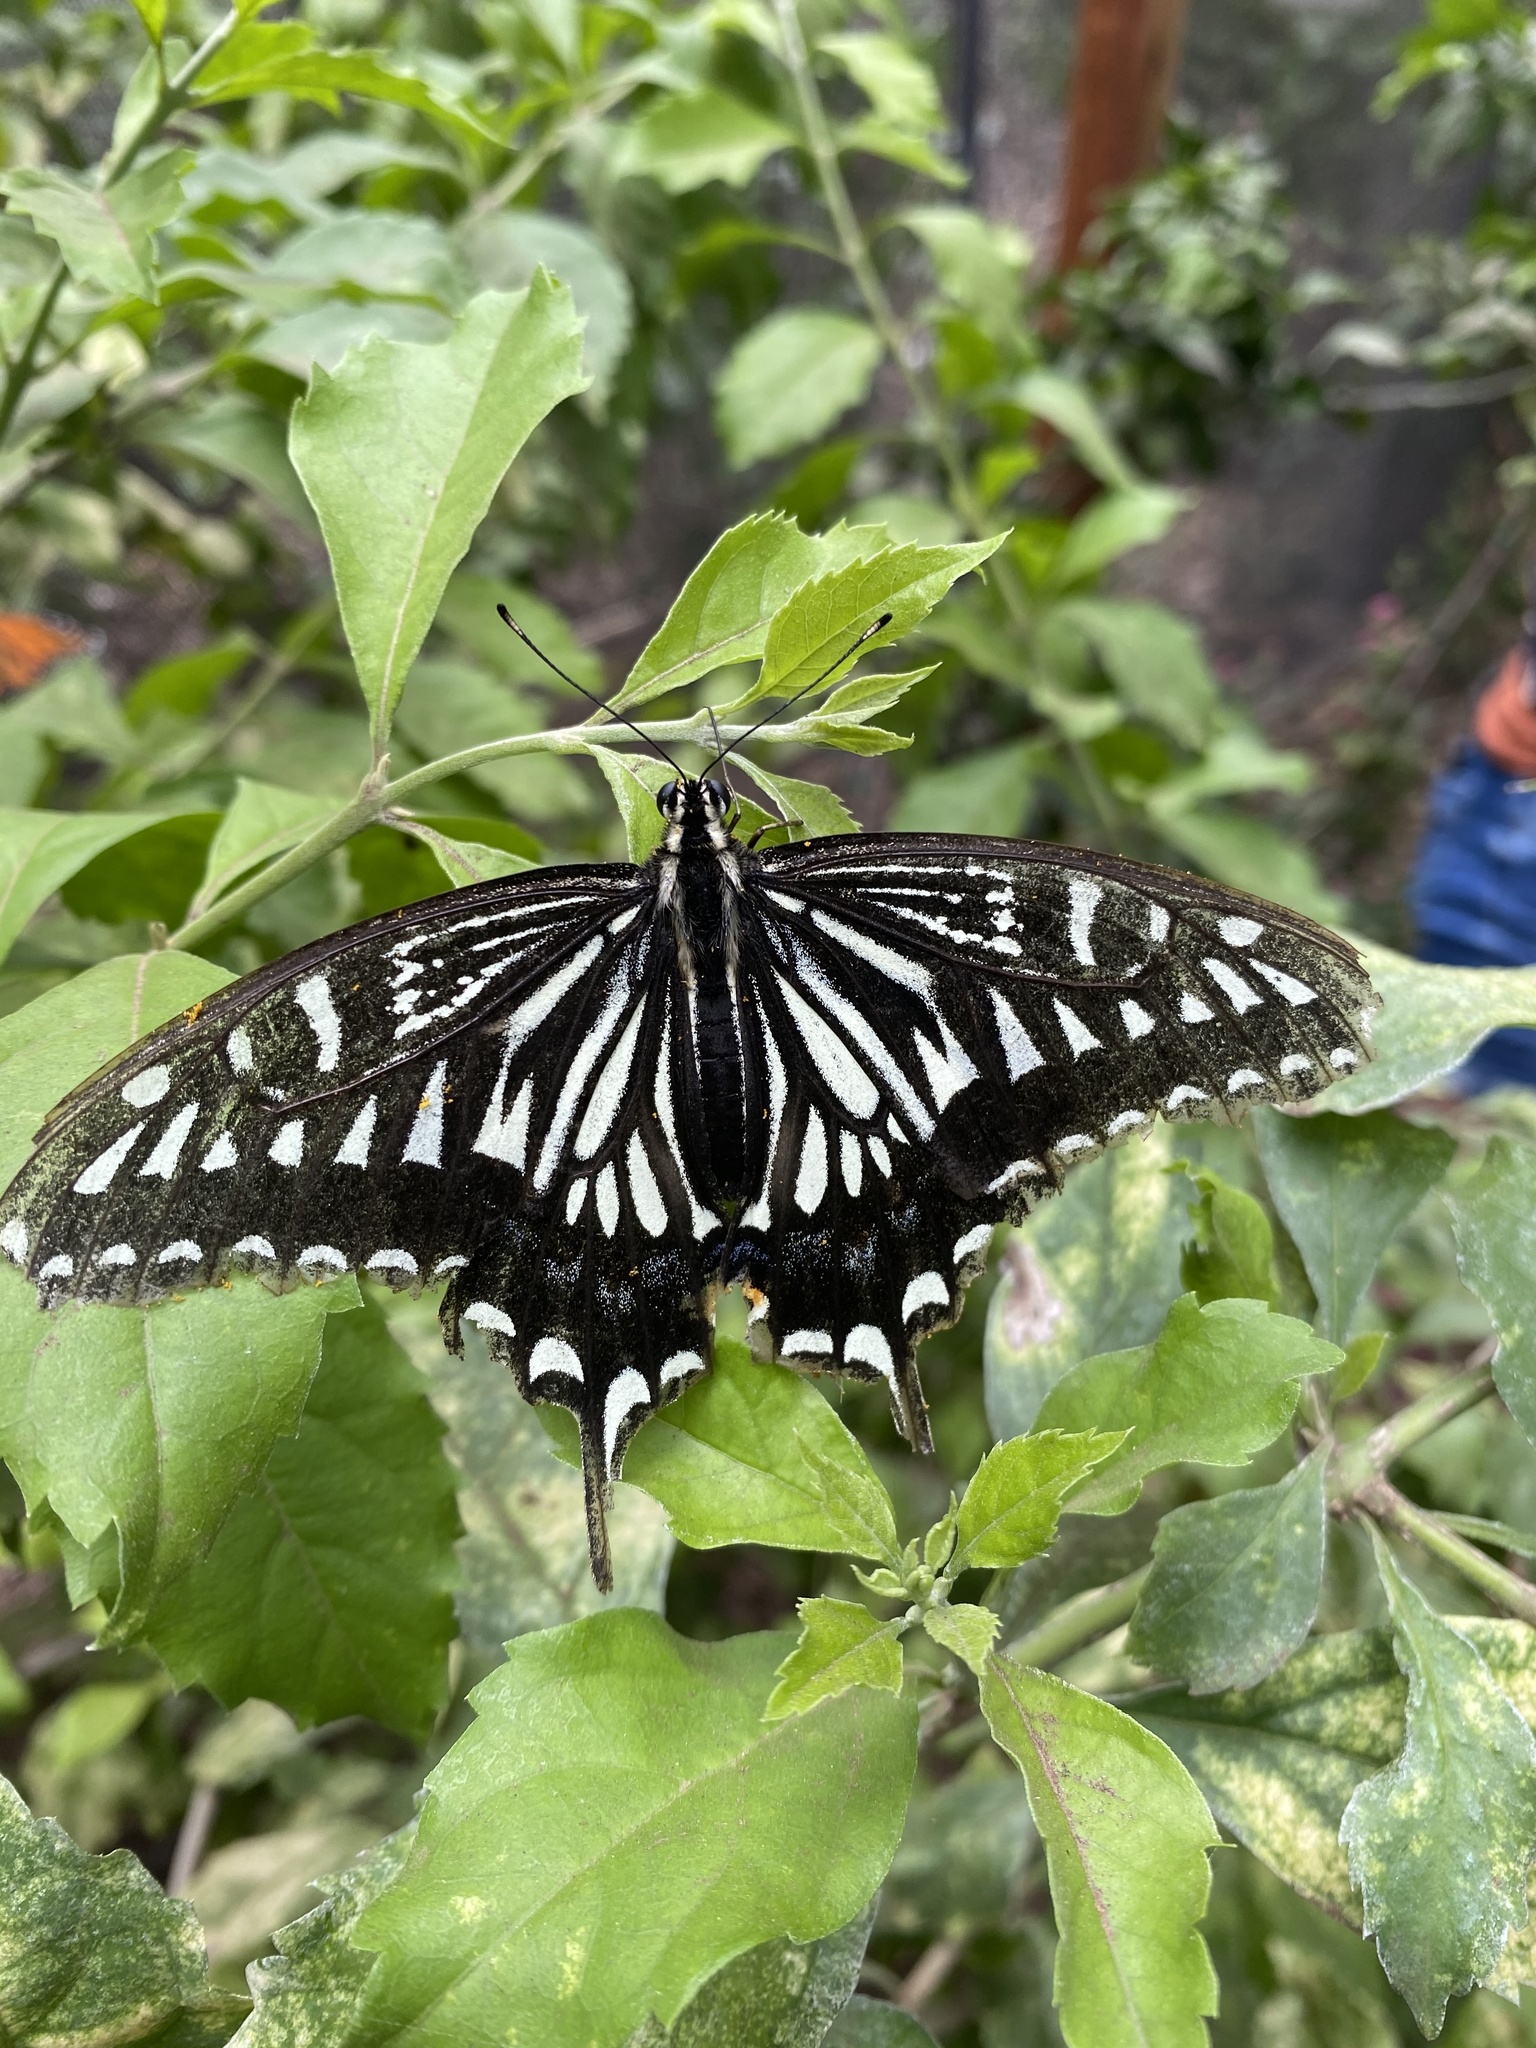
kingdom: Animalia
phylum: Arthropoda
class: Insecta
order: Lepidoptera
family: Papilionidae
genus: Papilio
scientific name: Papilio xuthus
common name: Asian swallowtail
